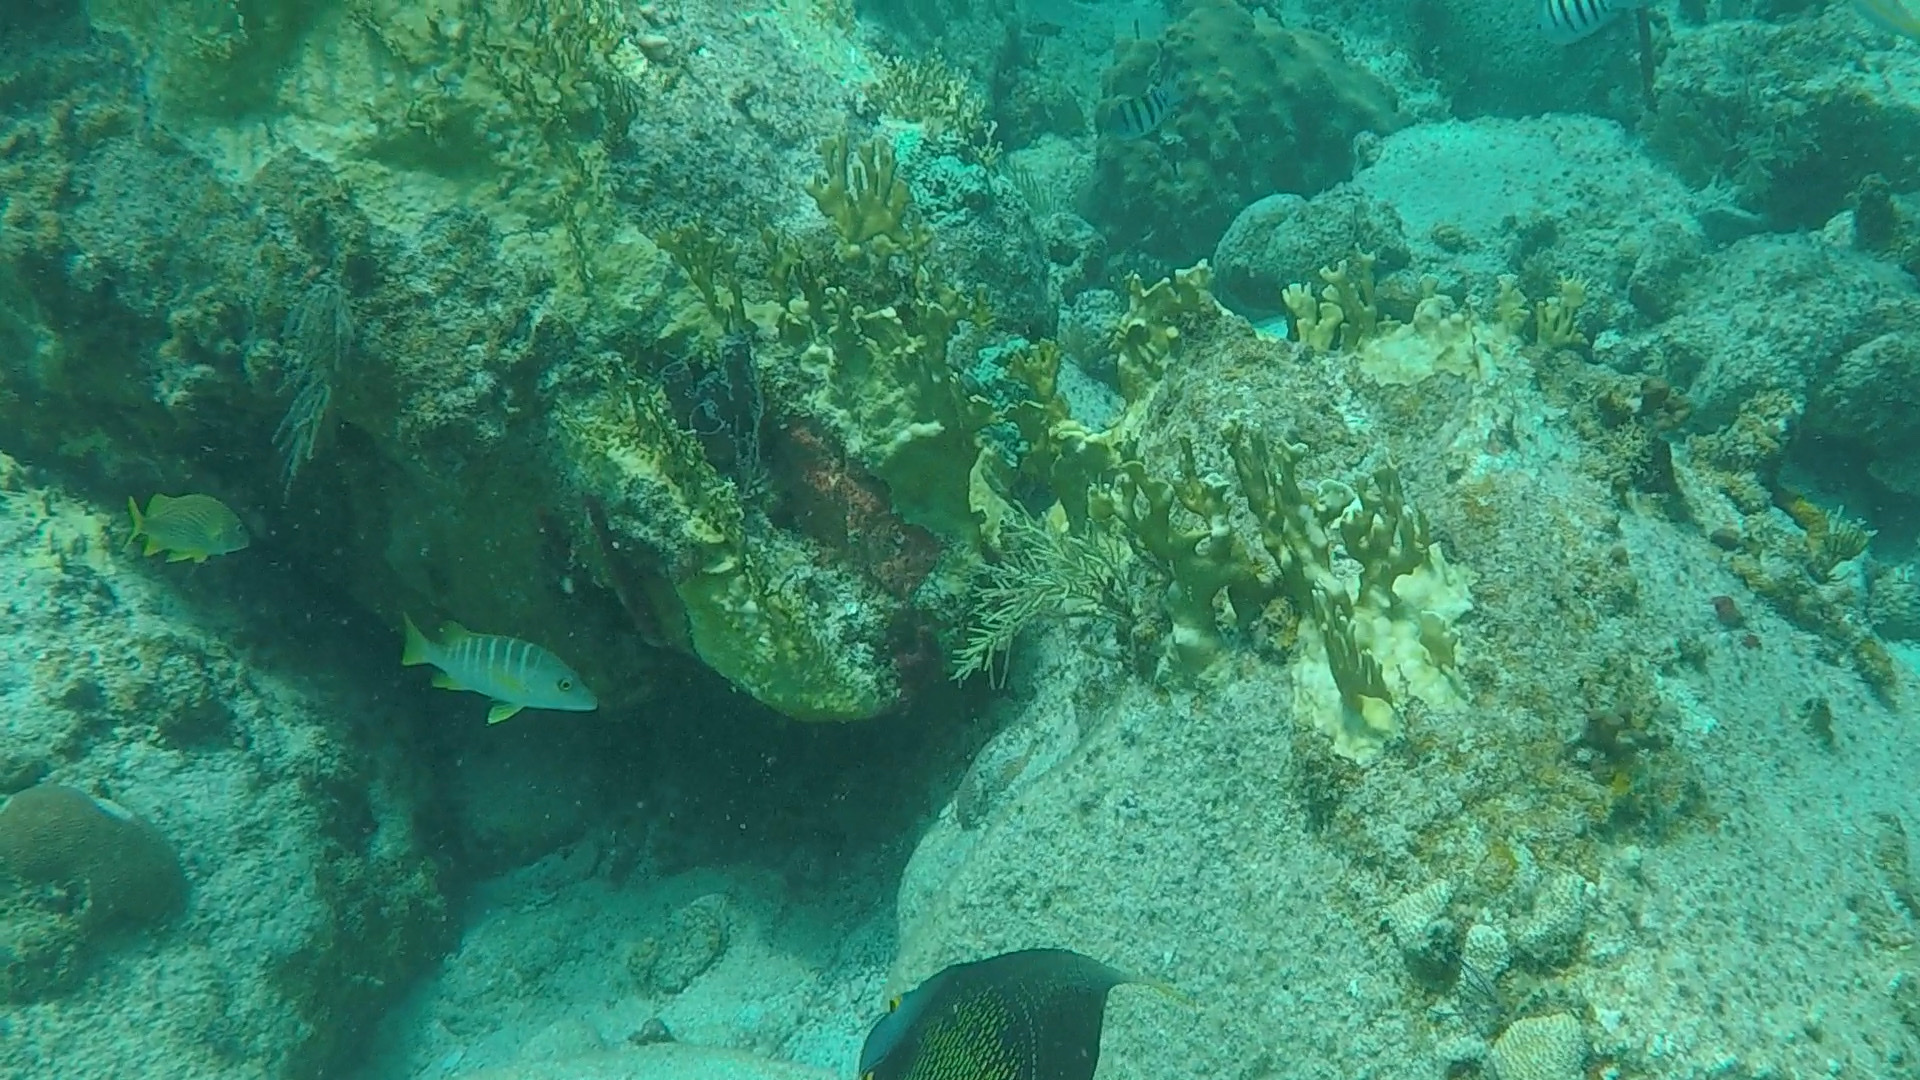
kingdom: Animalia
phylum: Chordata
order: Perciformes
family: Lutjanidae
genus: Lutjanus
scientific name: Lutjanus apodus
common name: Schoolmaster
